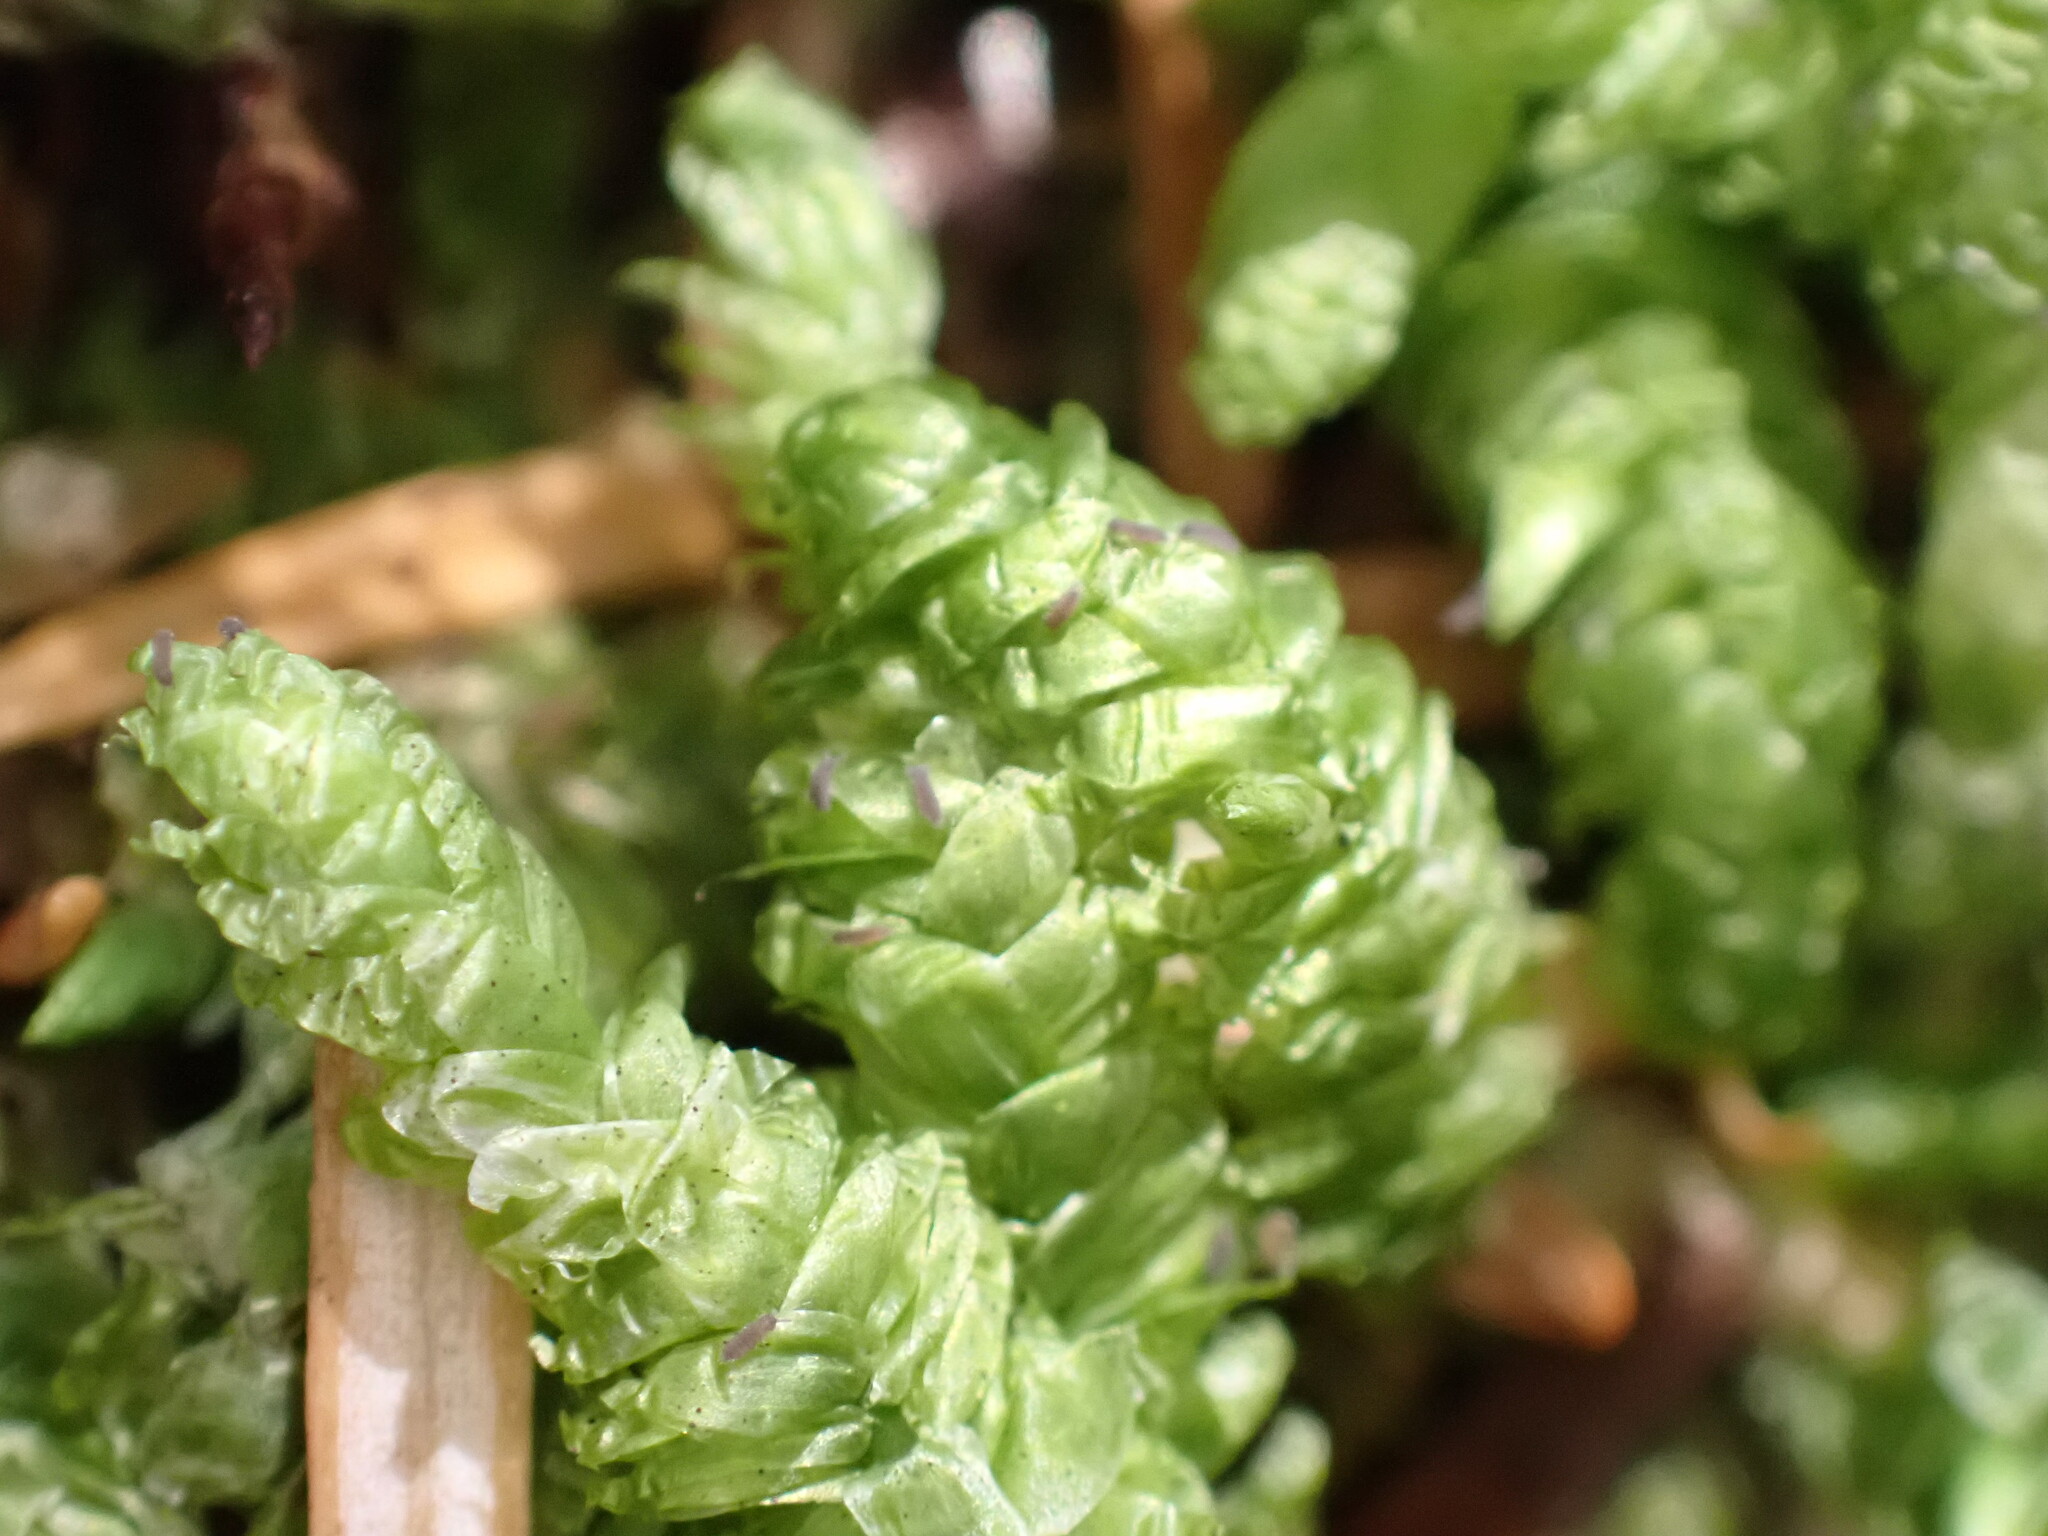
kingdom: Plantae
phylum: Bryophyta
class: Bryopsida
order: Hypnales
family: Plagiotheciaceae
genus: Plagiothecium
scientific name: Plagiothecium undulatum
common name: Waved silk-moss
